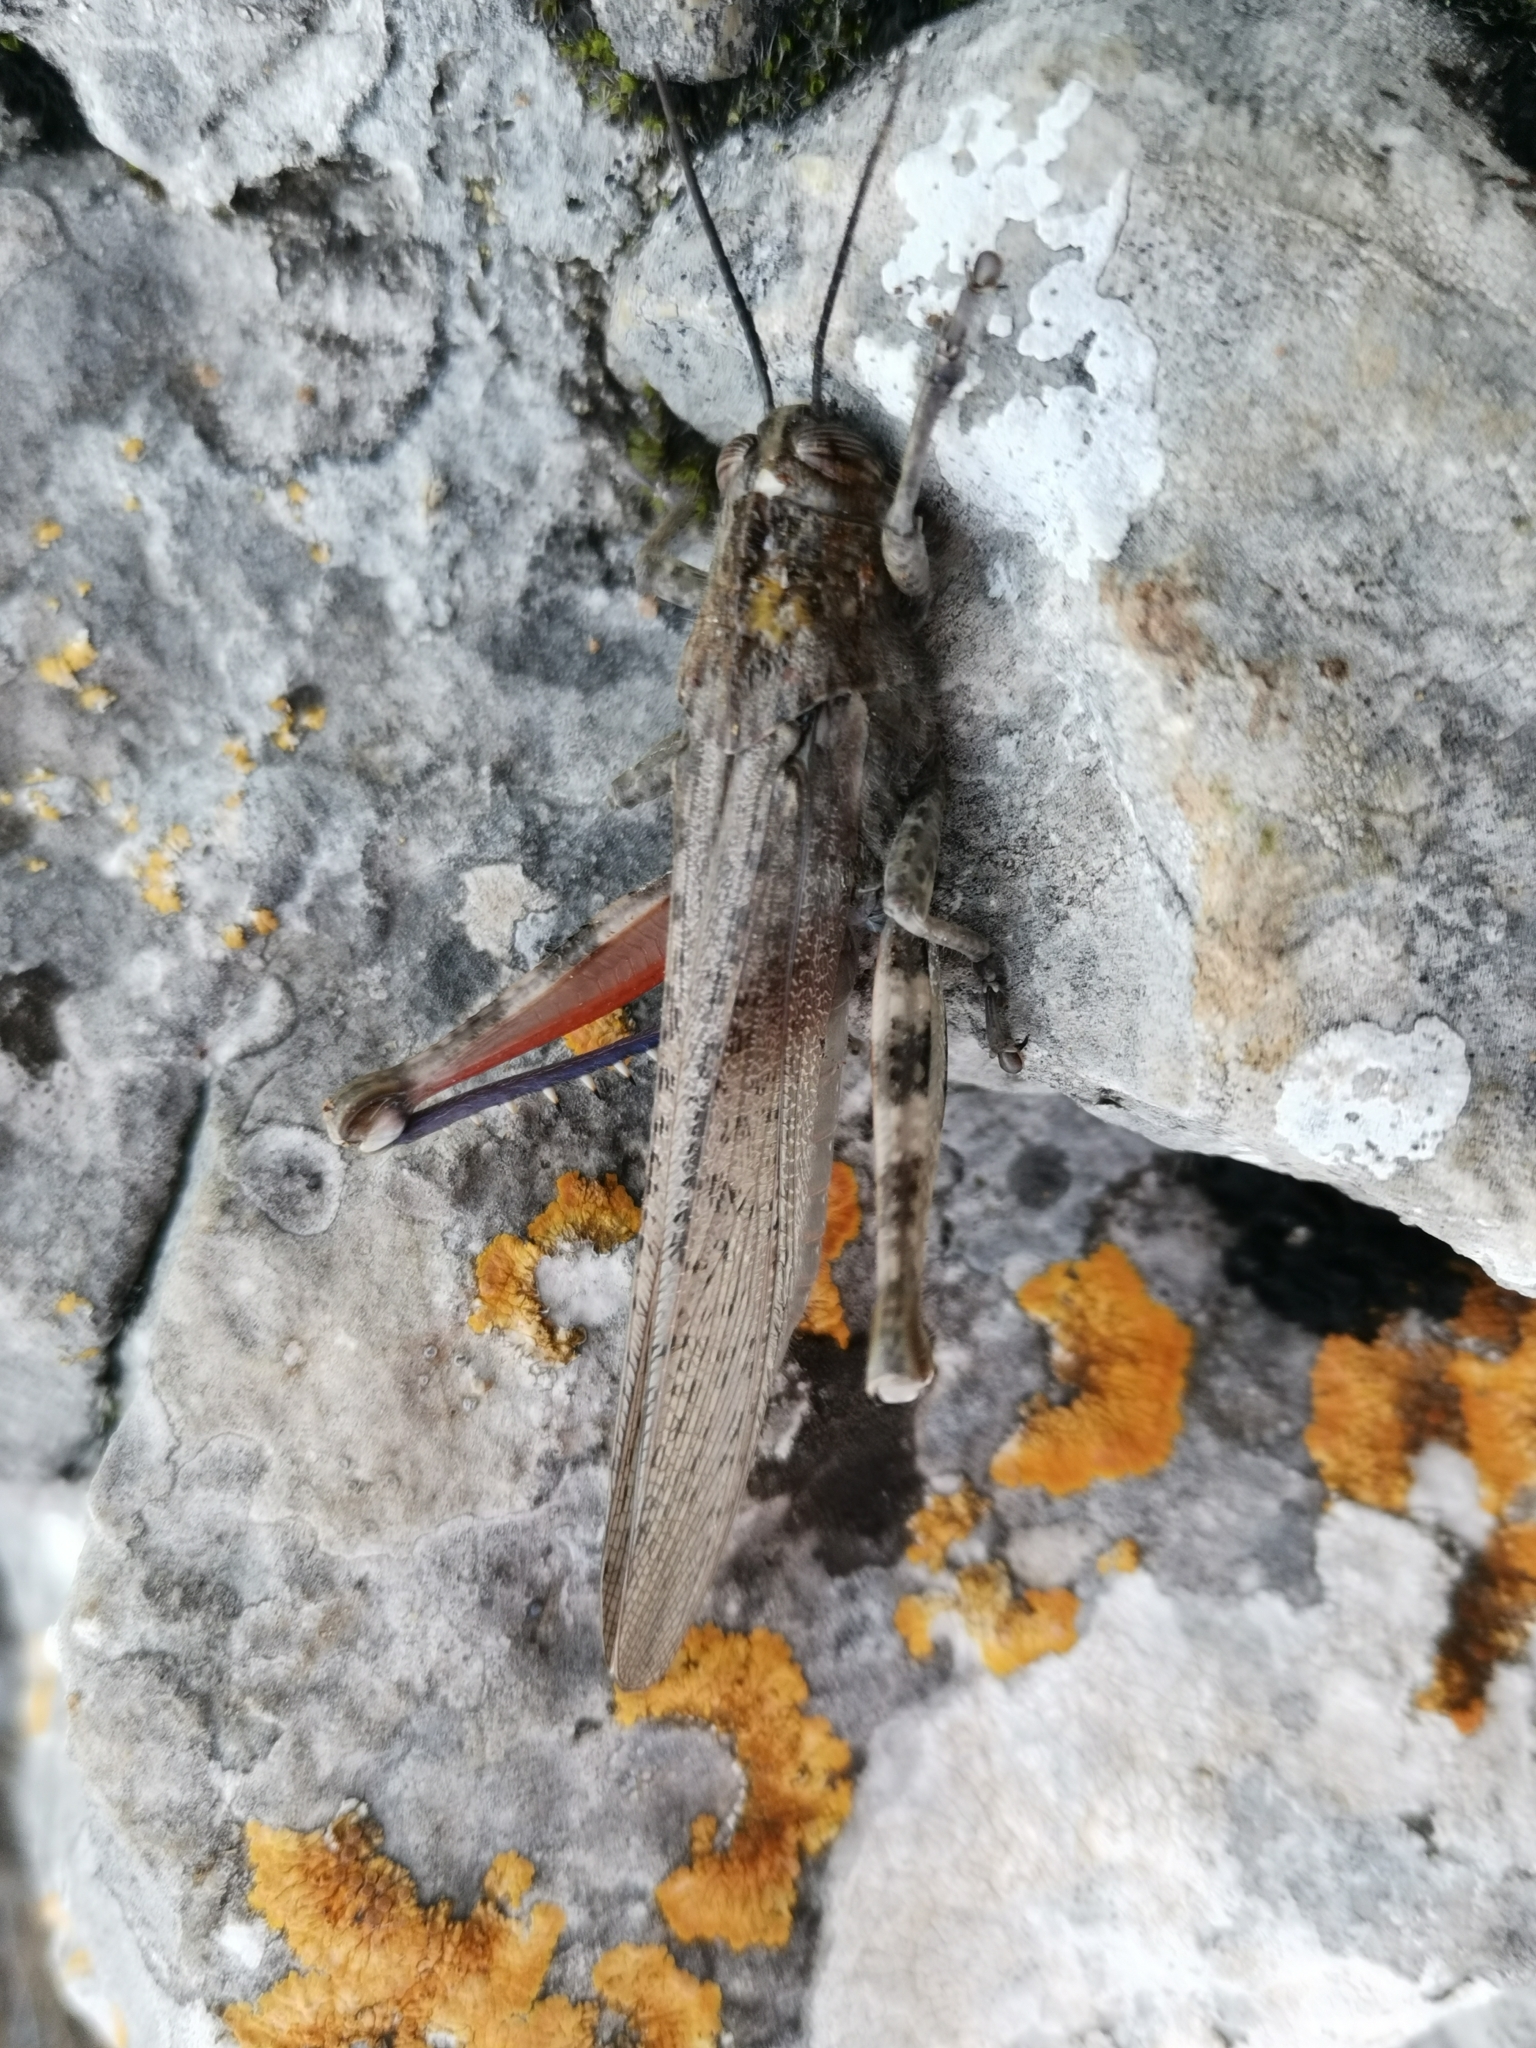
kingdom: Animalia
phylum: Arthropoda
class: Insecta
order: Orthoptera
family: Acrididae
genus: Anacridium
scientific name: Anacridium aegyptium
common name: Egyptian grasshopper
